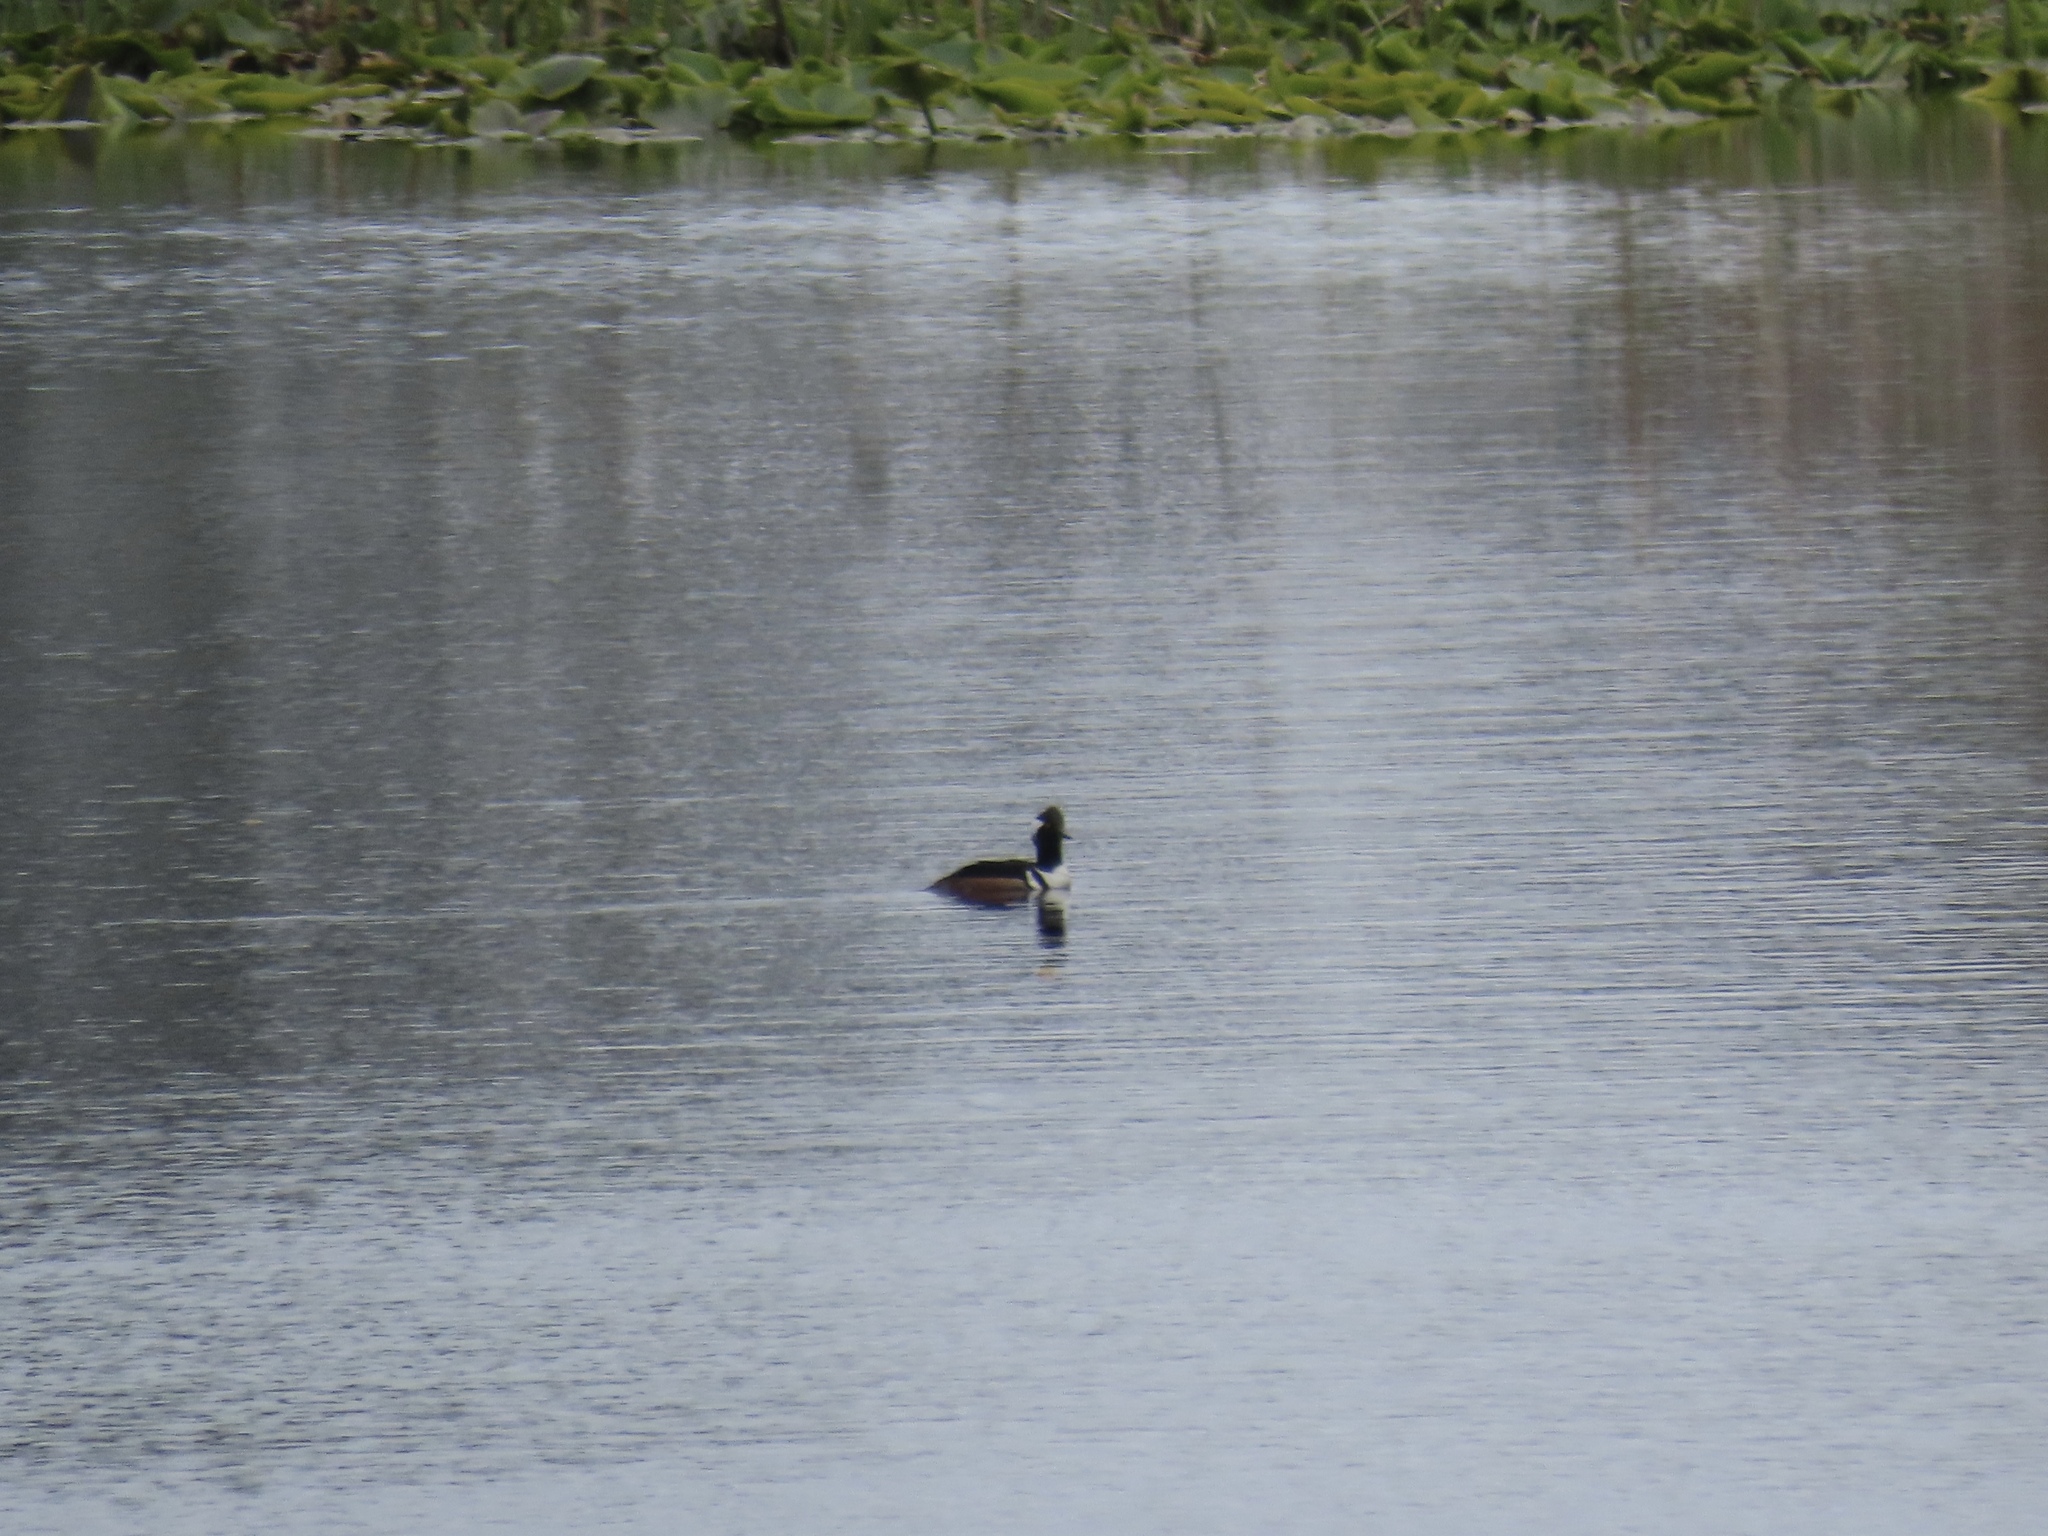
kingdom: Animalia
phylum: Chordata
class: Aves
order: Anseriformes
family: Anatidae
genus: Lophodytes
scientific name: Lophodytes cucullatus
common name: Hooded merganser
